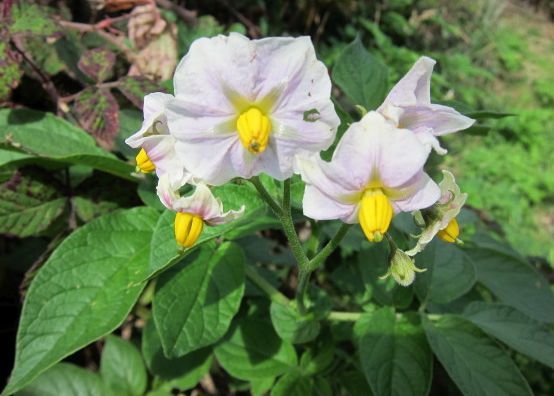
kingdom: Plantae
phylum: Tracheophyta
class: Magnoliopsida
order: Solanales
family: Solanaceae
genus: Solanum
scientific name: Solanum tuberosum
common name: Potato
